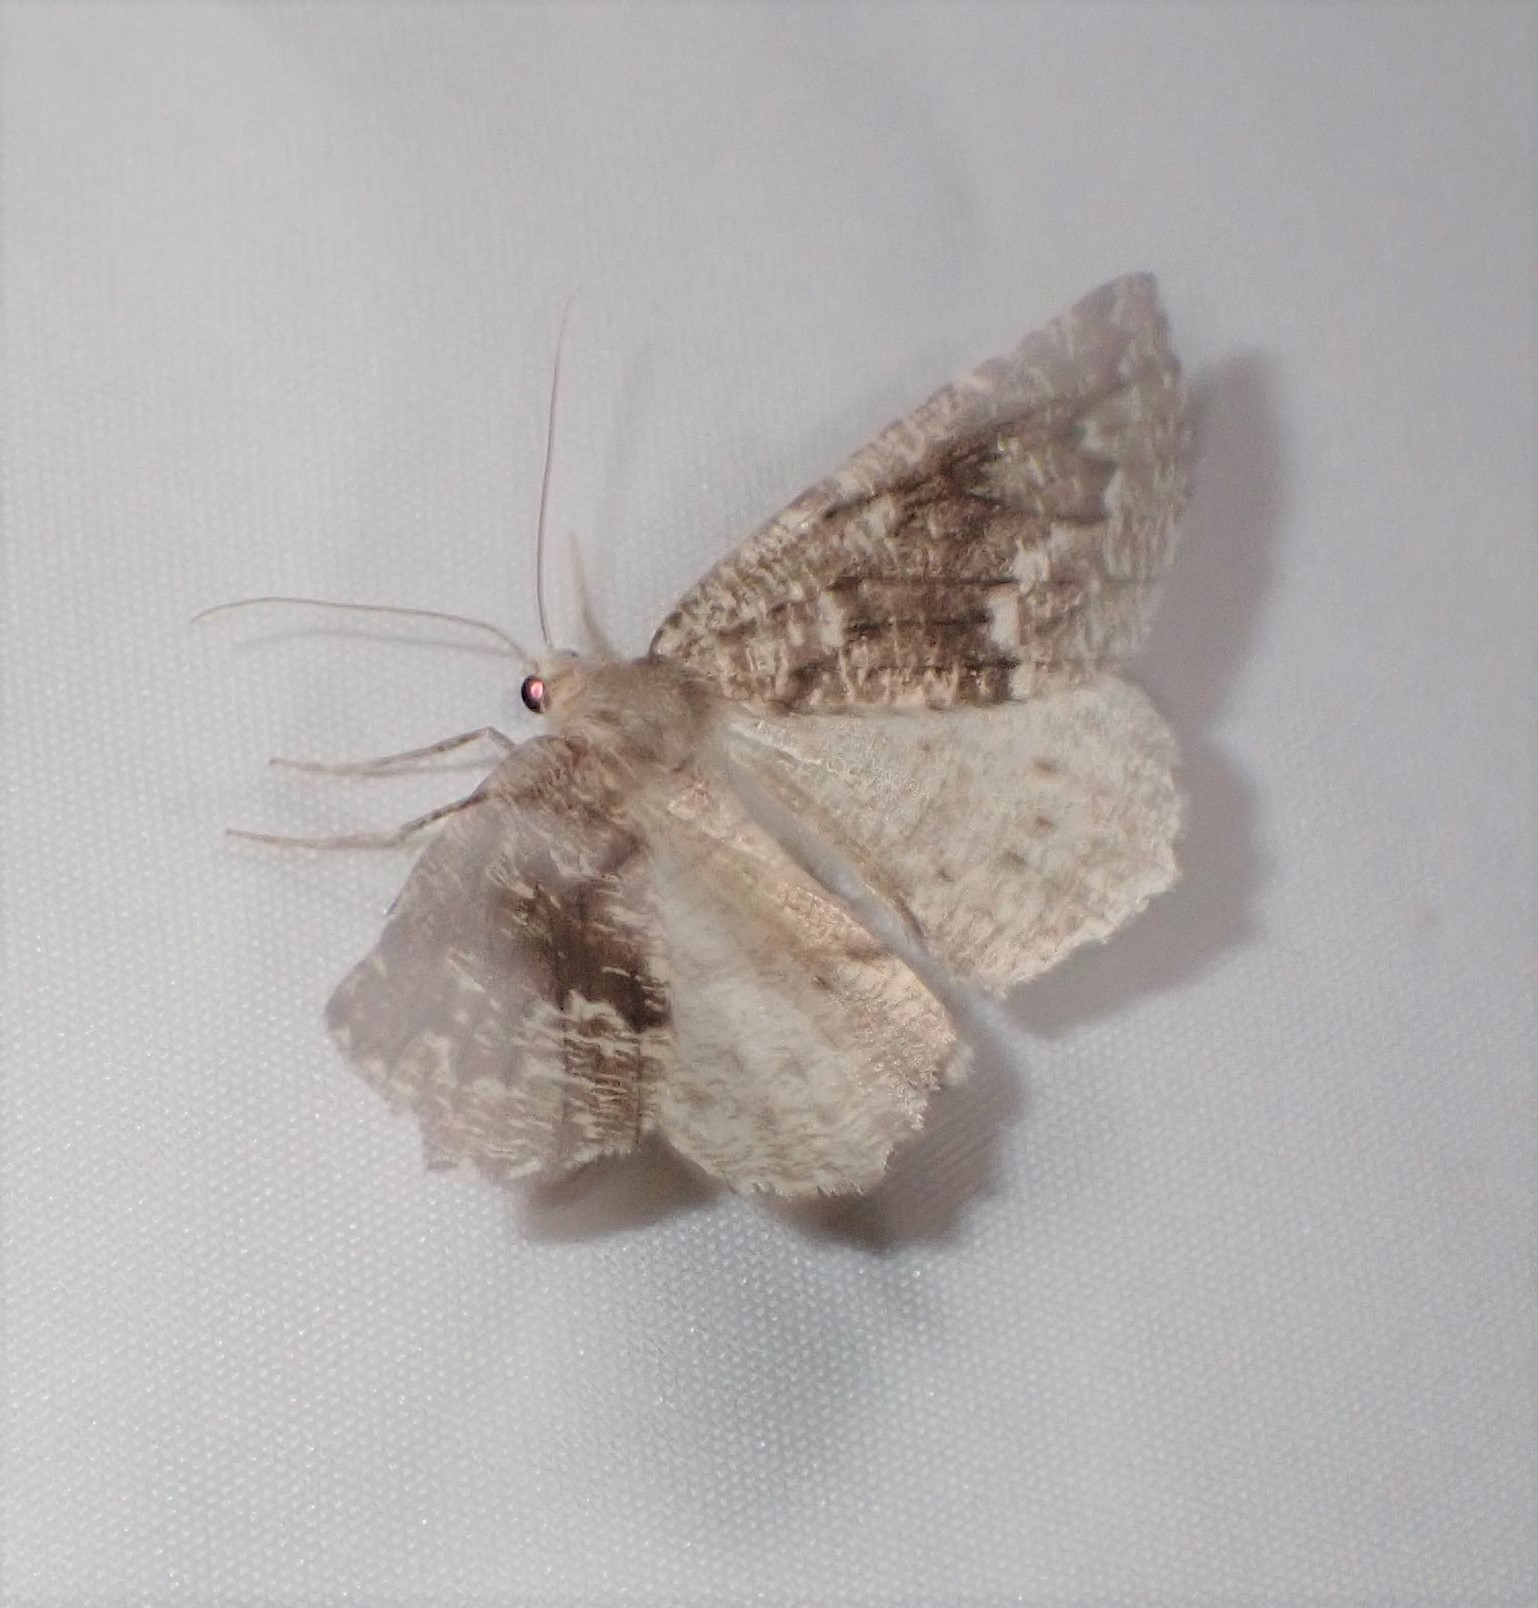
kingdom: Animalia
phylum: Arthropoda
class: Insecta
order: Lepidoptera
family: Geometridae
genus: Sabulodes
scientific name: Sabulodes
